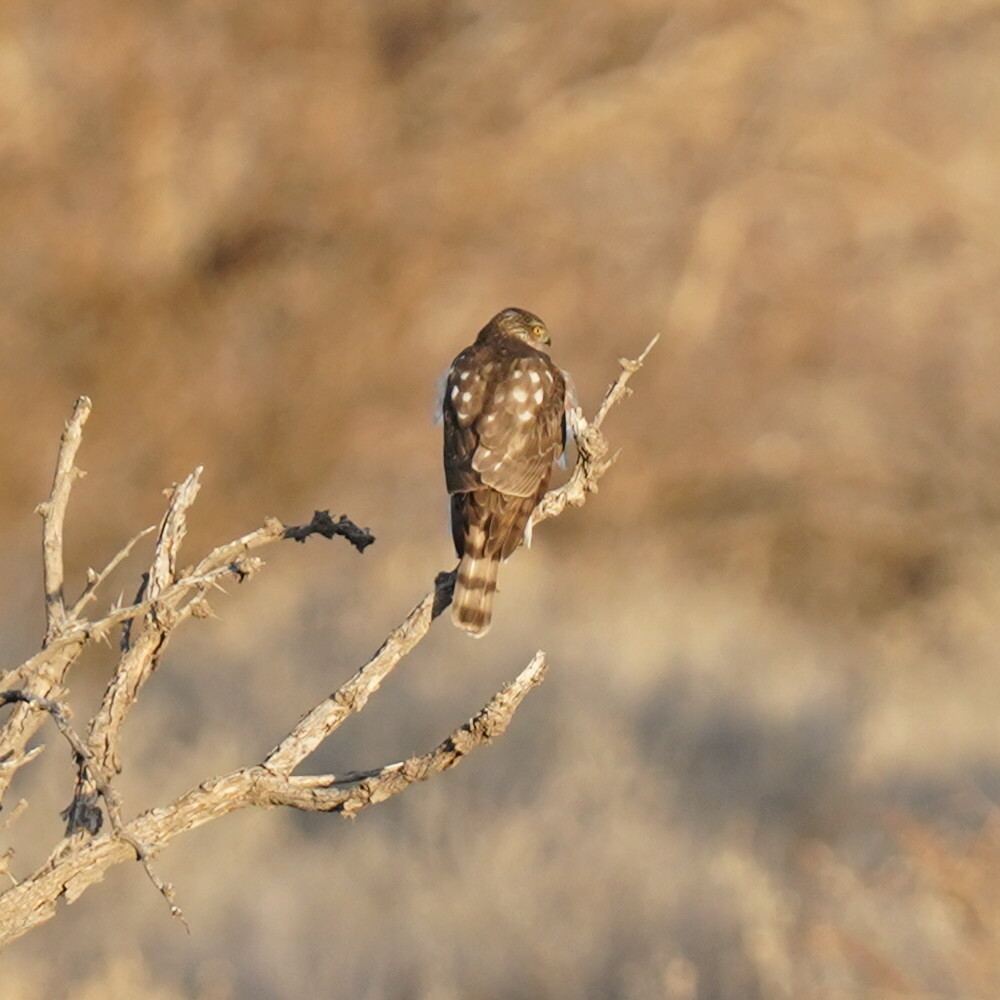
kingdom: Animalia
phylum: Chordata
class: Aves
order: Accipitriformes
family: Accipitridae
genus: Accipiter
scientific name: Accipiter striatus
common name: Sharp-shinned hawk
